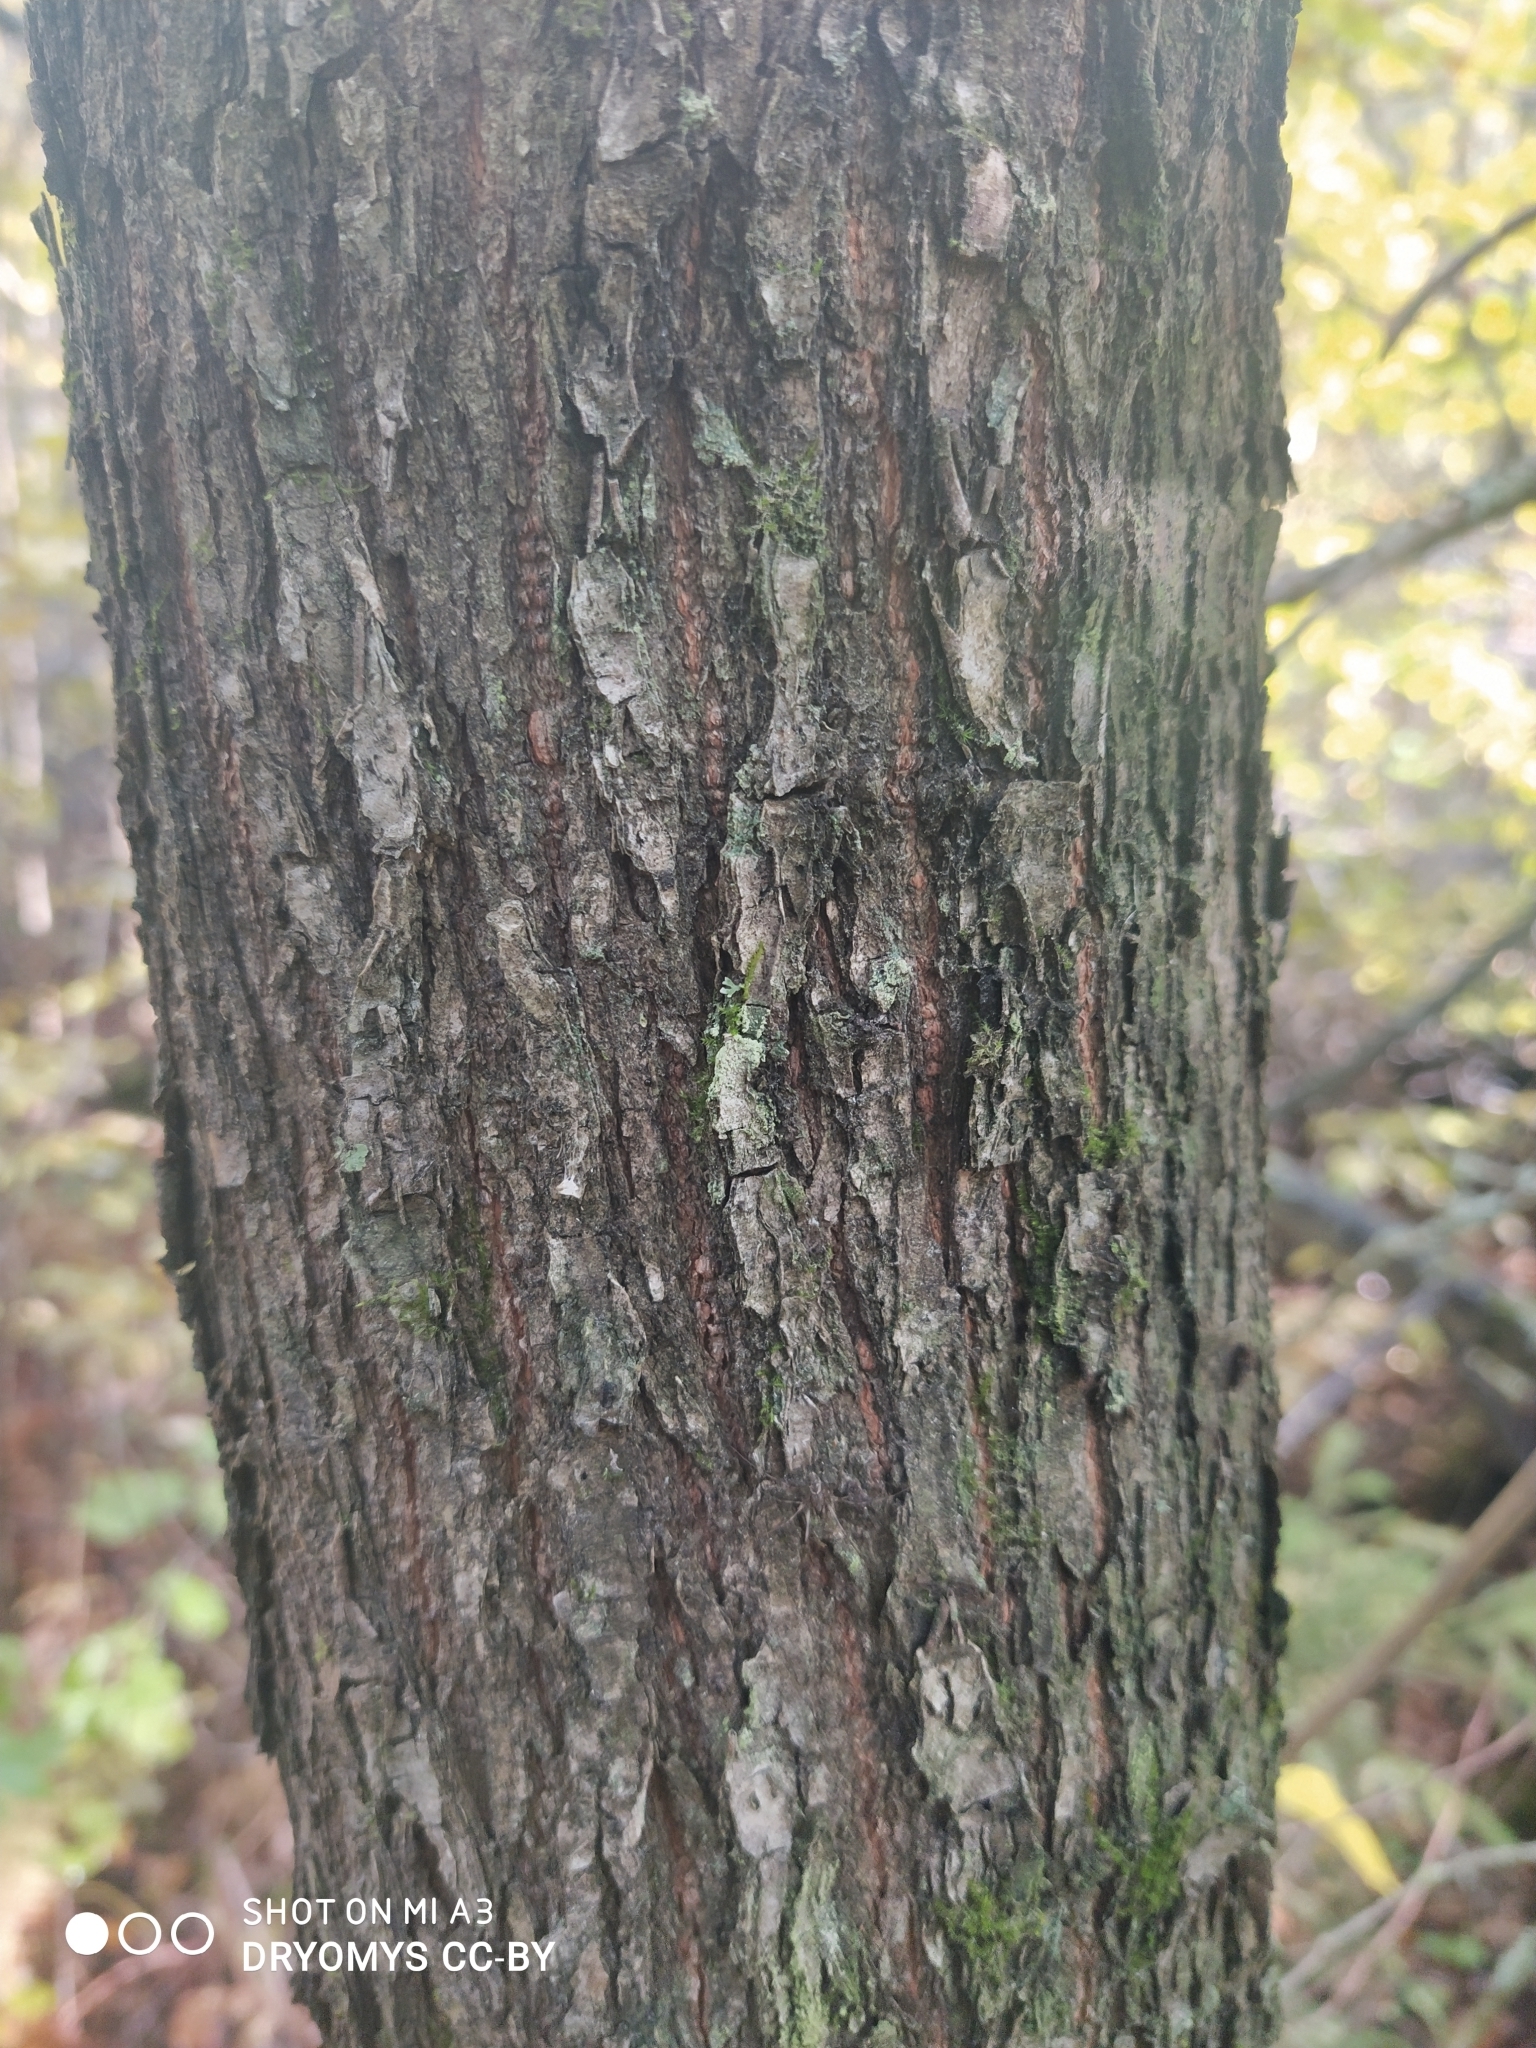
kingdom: Plantae
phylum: Tracheophyta
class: Magnoliopsida
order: Rosales
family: Ulmaceae
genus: Ulmus
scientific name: Ulmus glabra
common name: Wych elm
